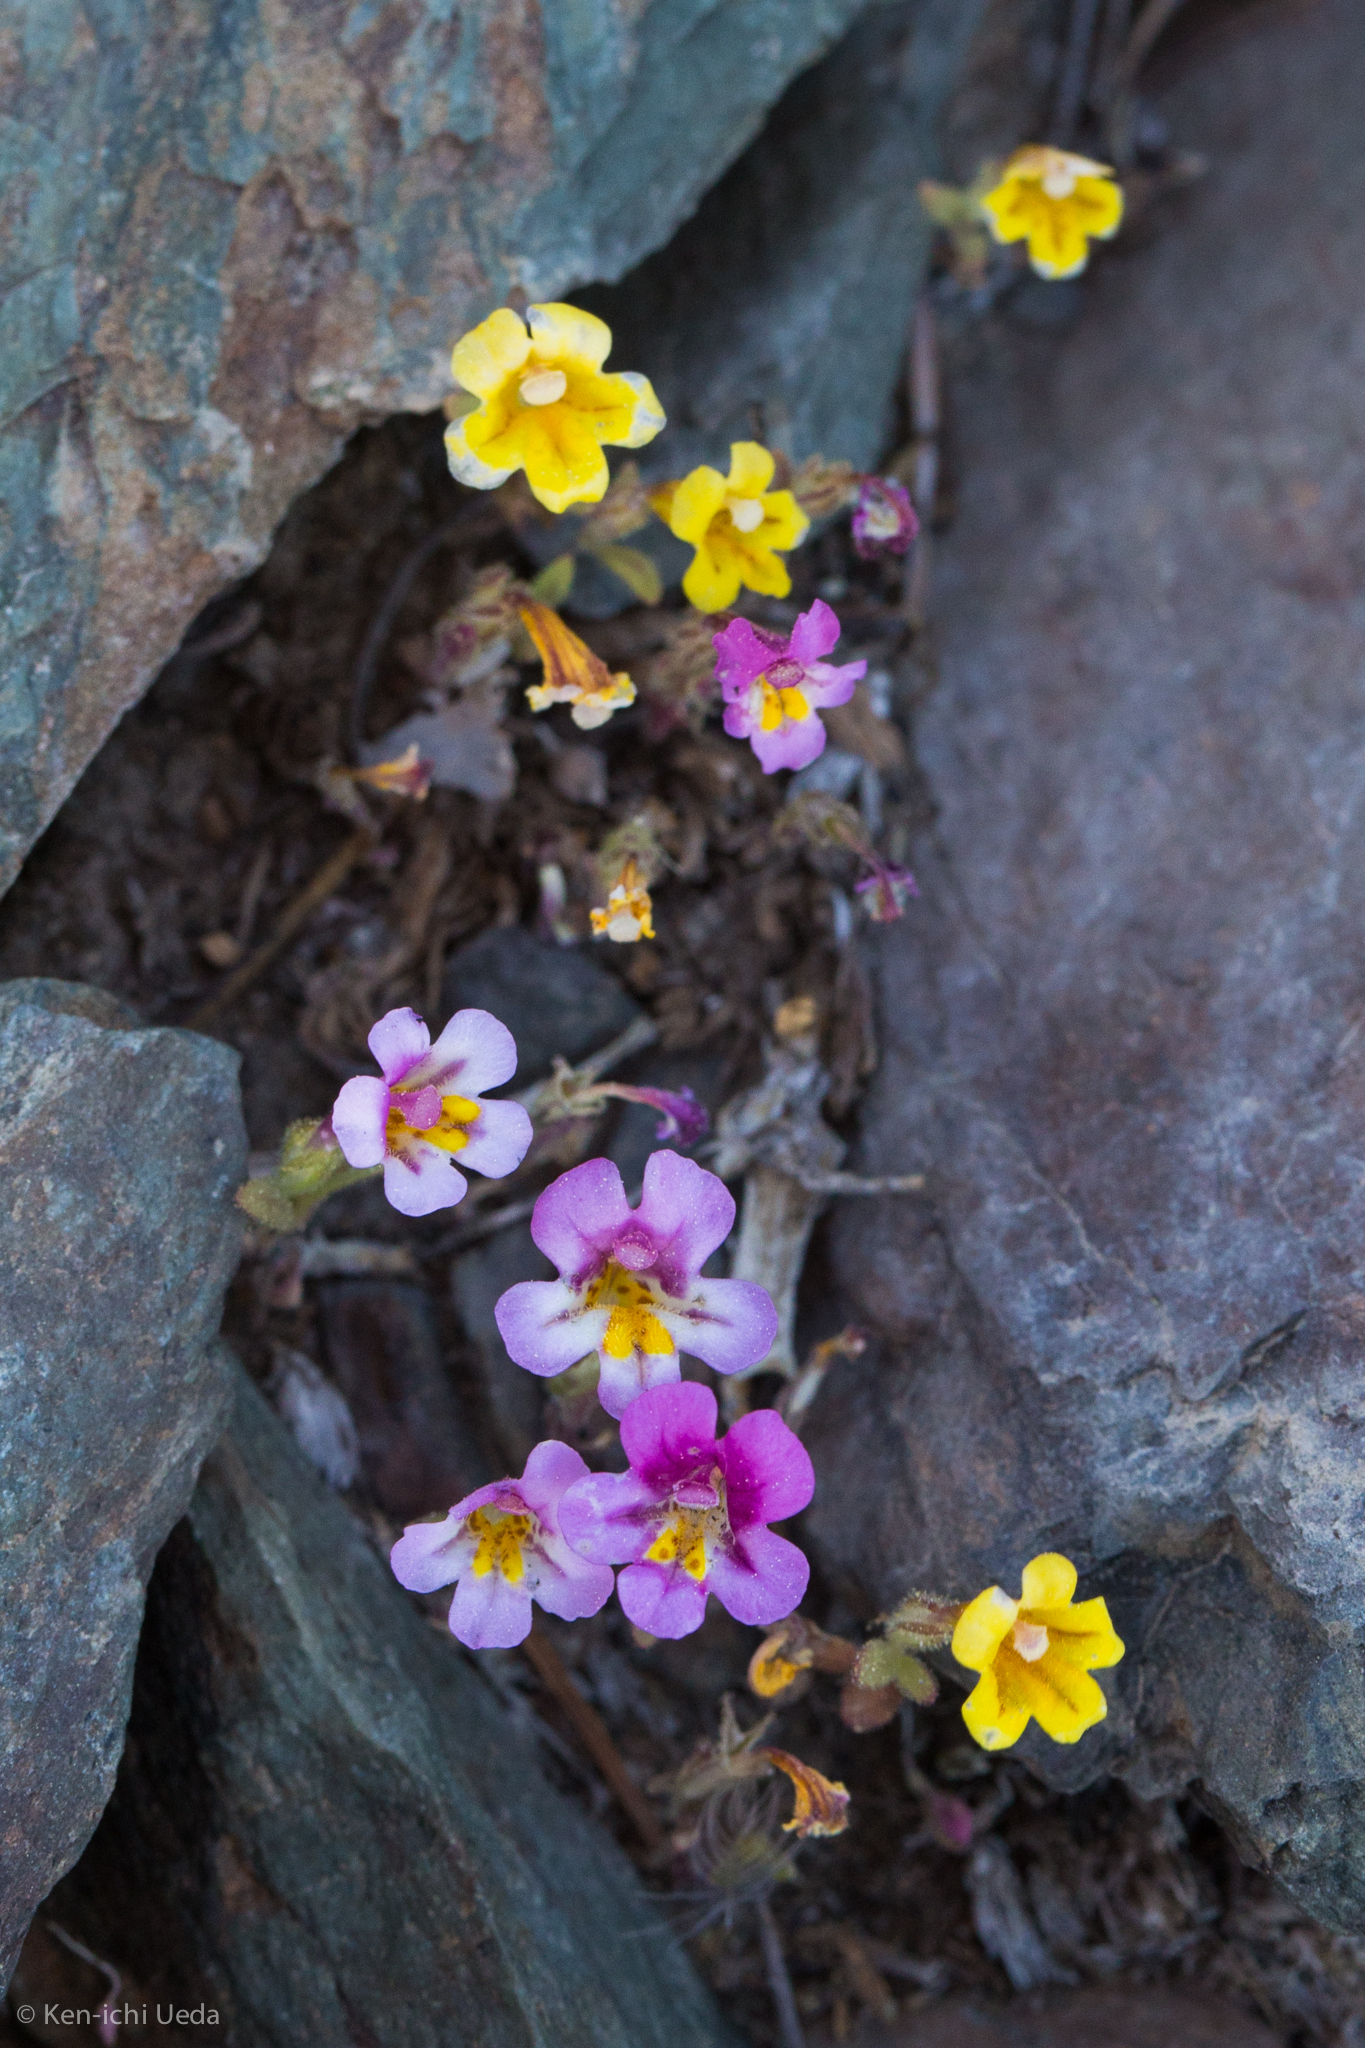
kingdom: Plantae
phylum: Tracheophyta
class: Magnoliopsida
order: Lamiales
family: Phrymaceae
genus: Diplacus
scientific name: Diplacus mephiticus
